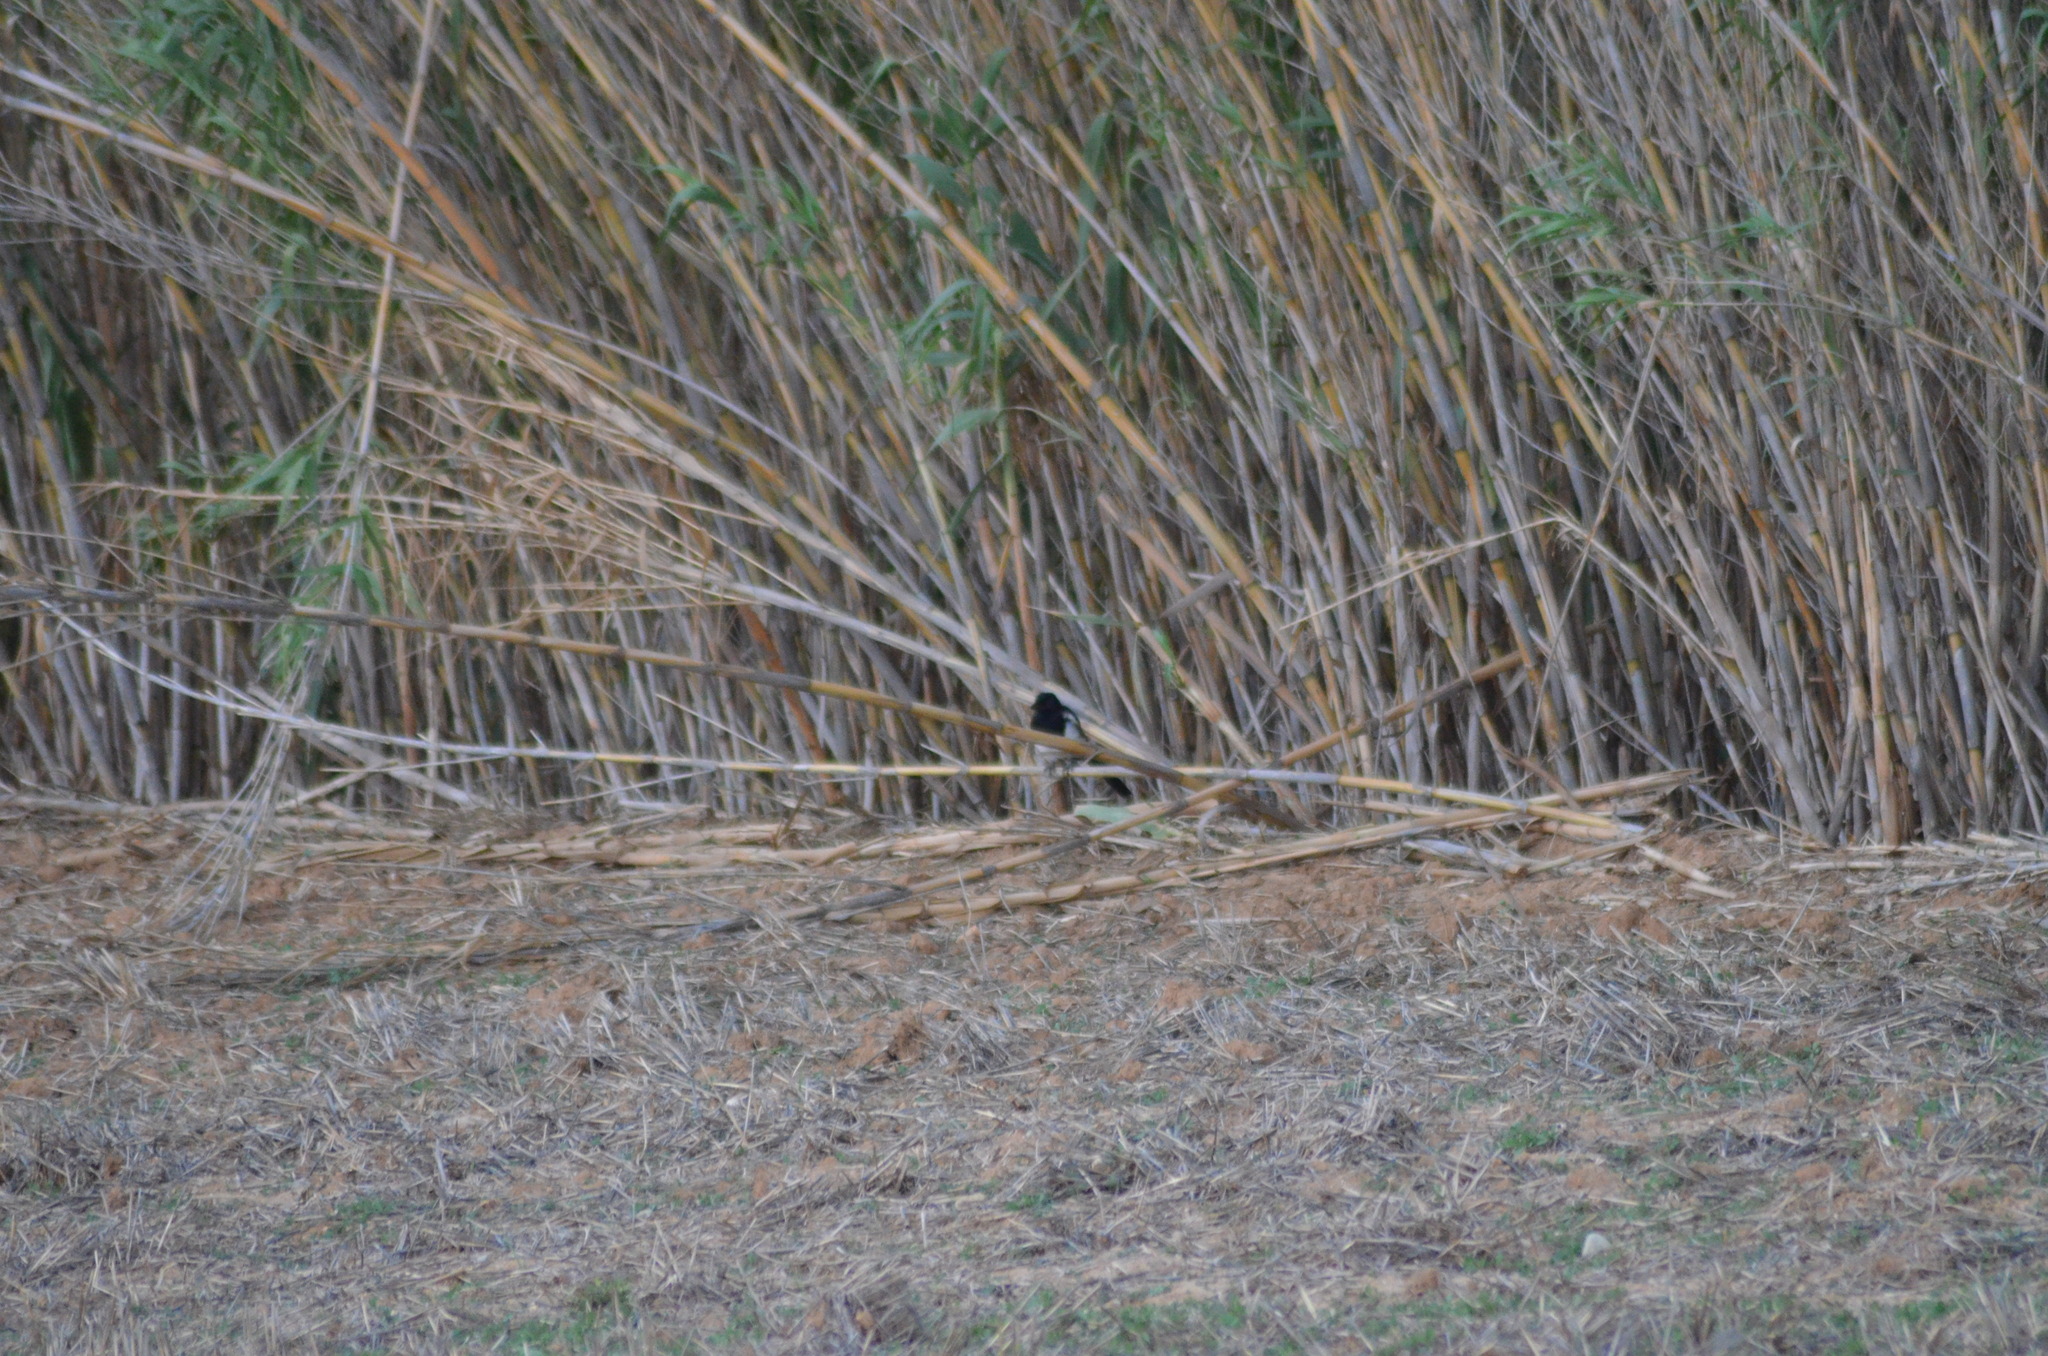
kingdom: Animalia
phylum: Chordata
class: Aves
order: Passeriformes
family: Corvidae
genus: Pica
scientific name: Pica pica
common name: Eurasian magpie
